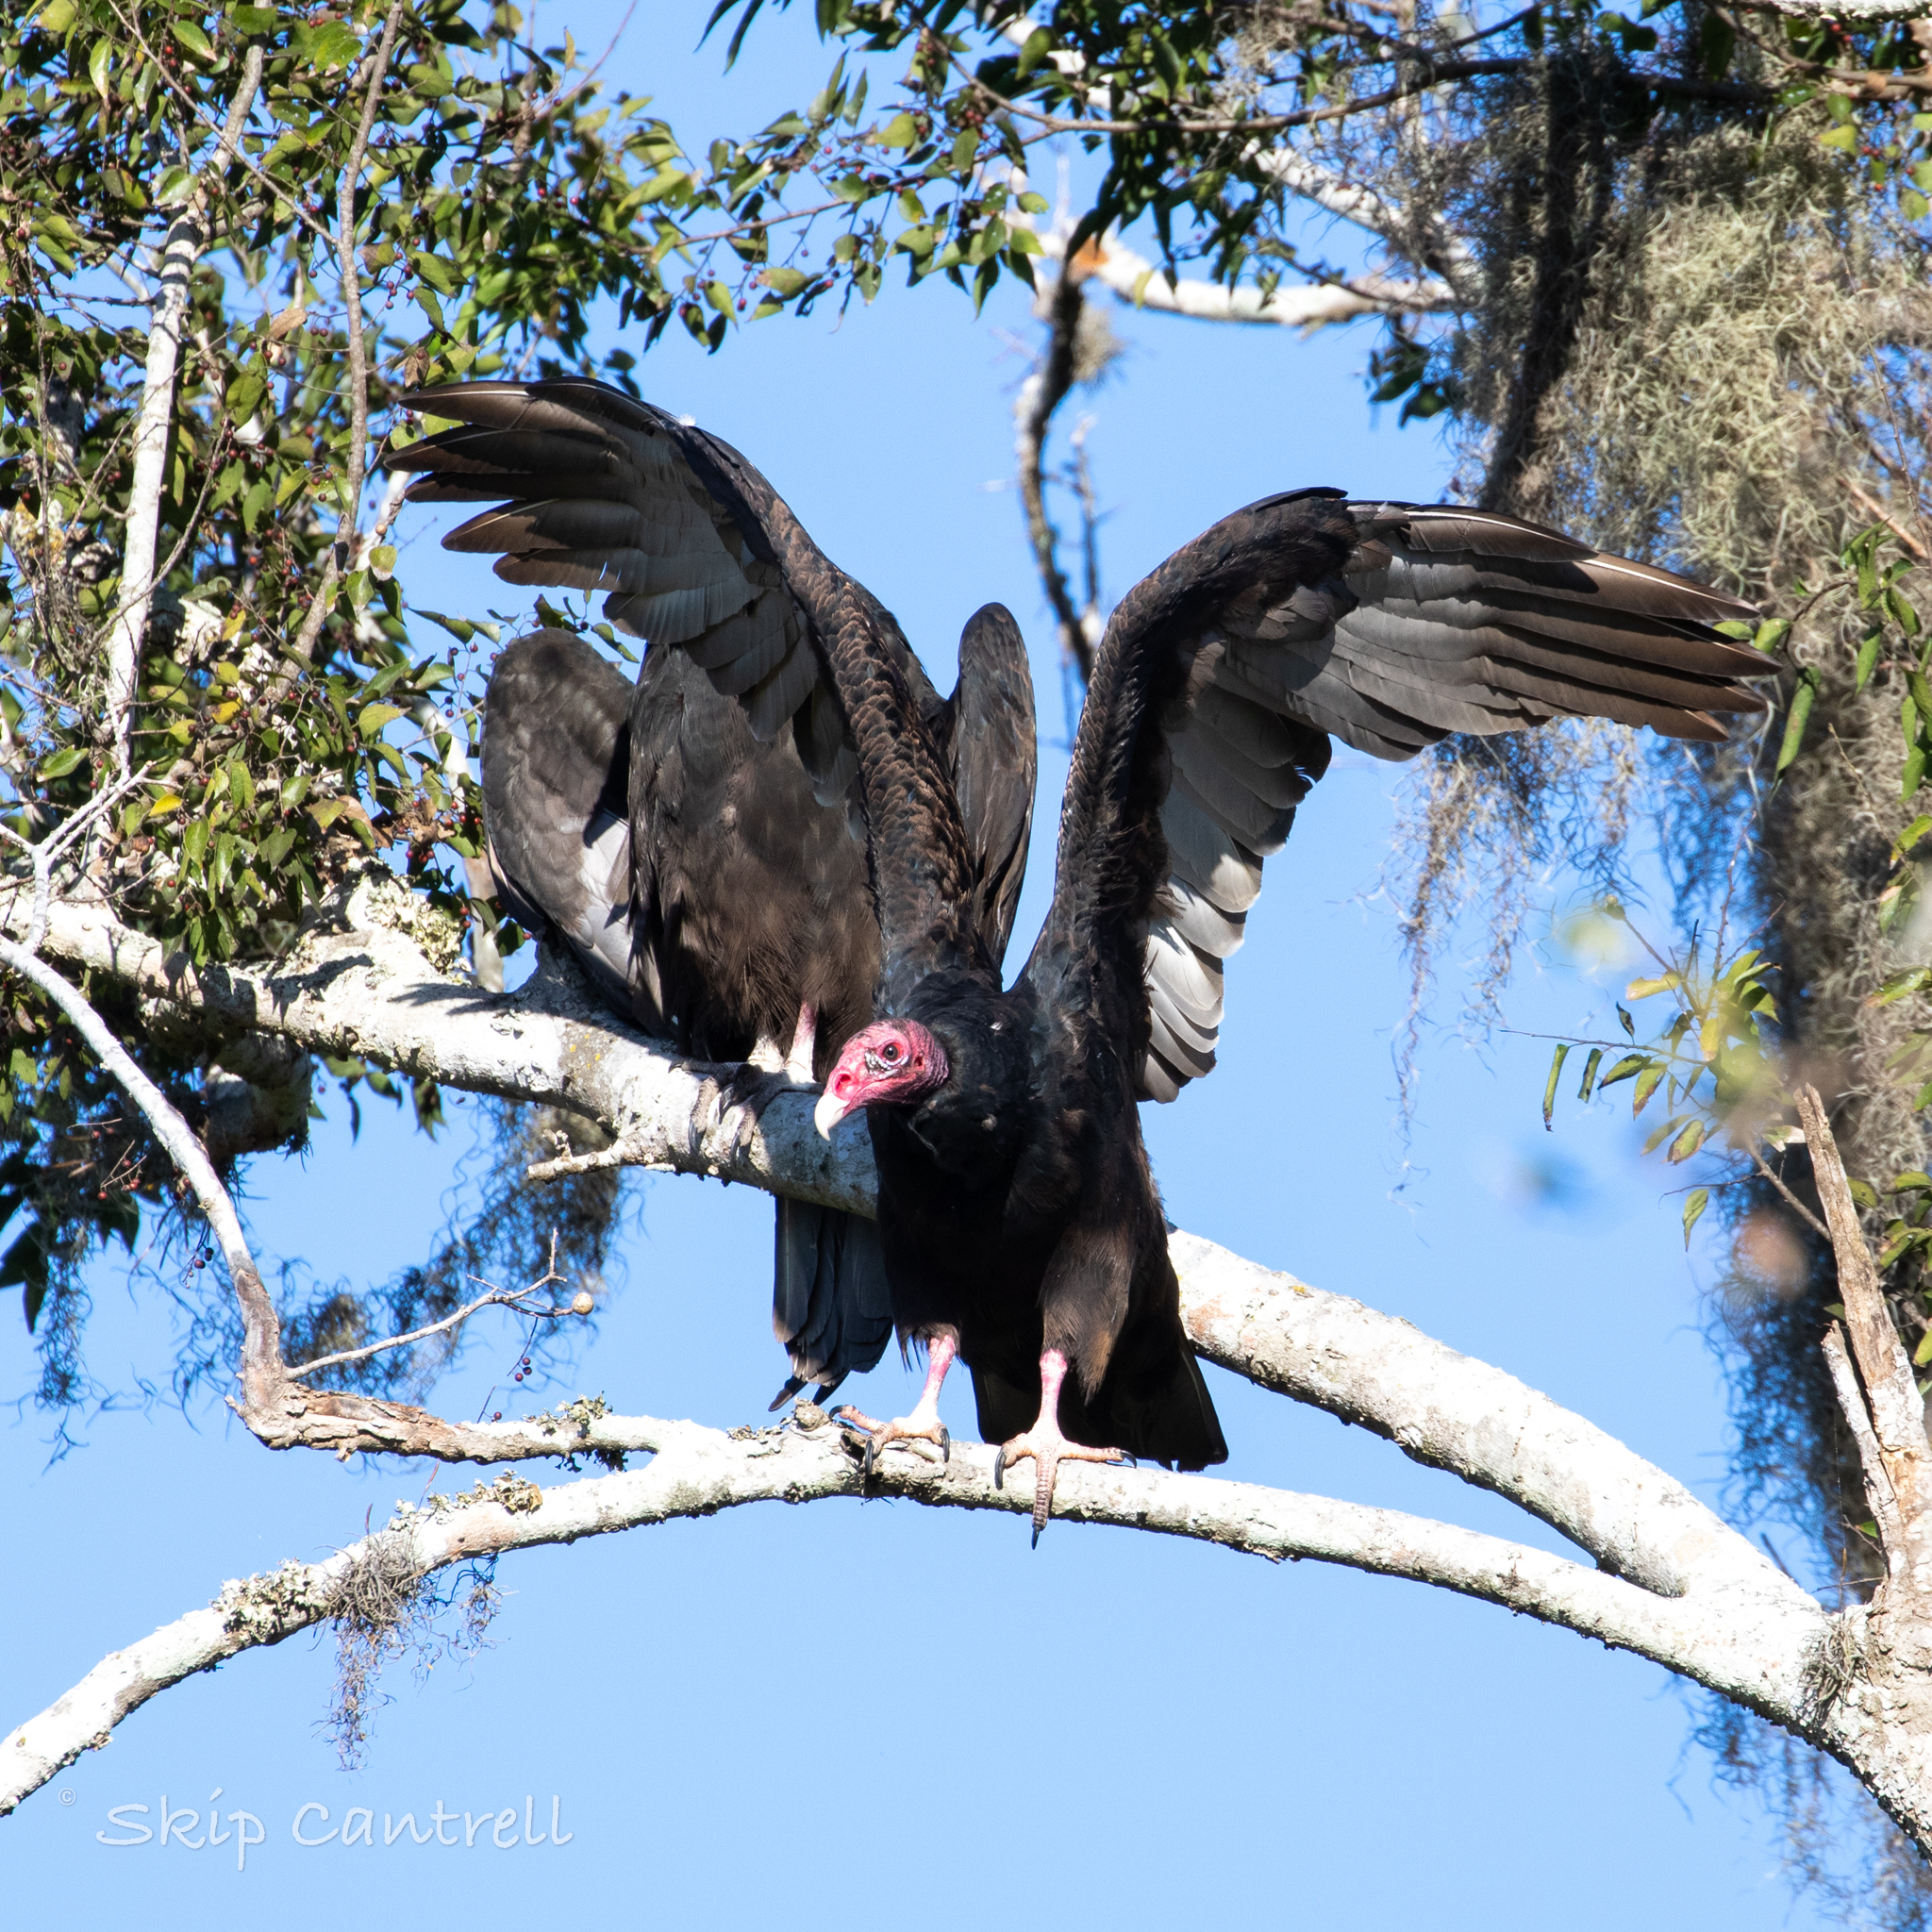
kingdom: Animalia
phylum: Chordata
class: Aves
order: Accipitriformes
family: Cathartidae
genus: Cathartes
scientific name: Cathartes aura
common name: Turkey vulture
